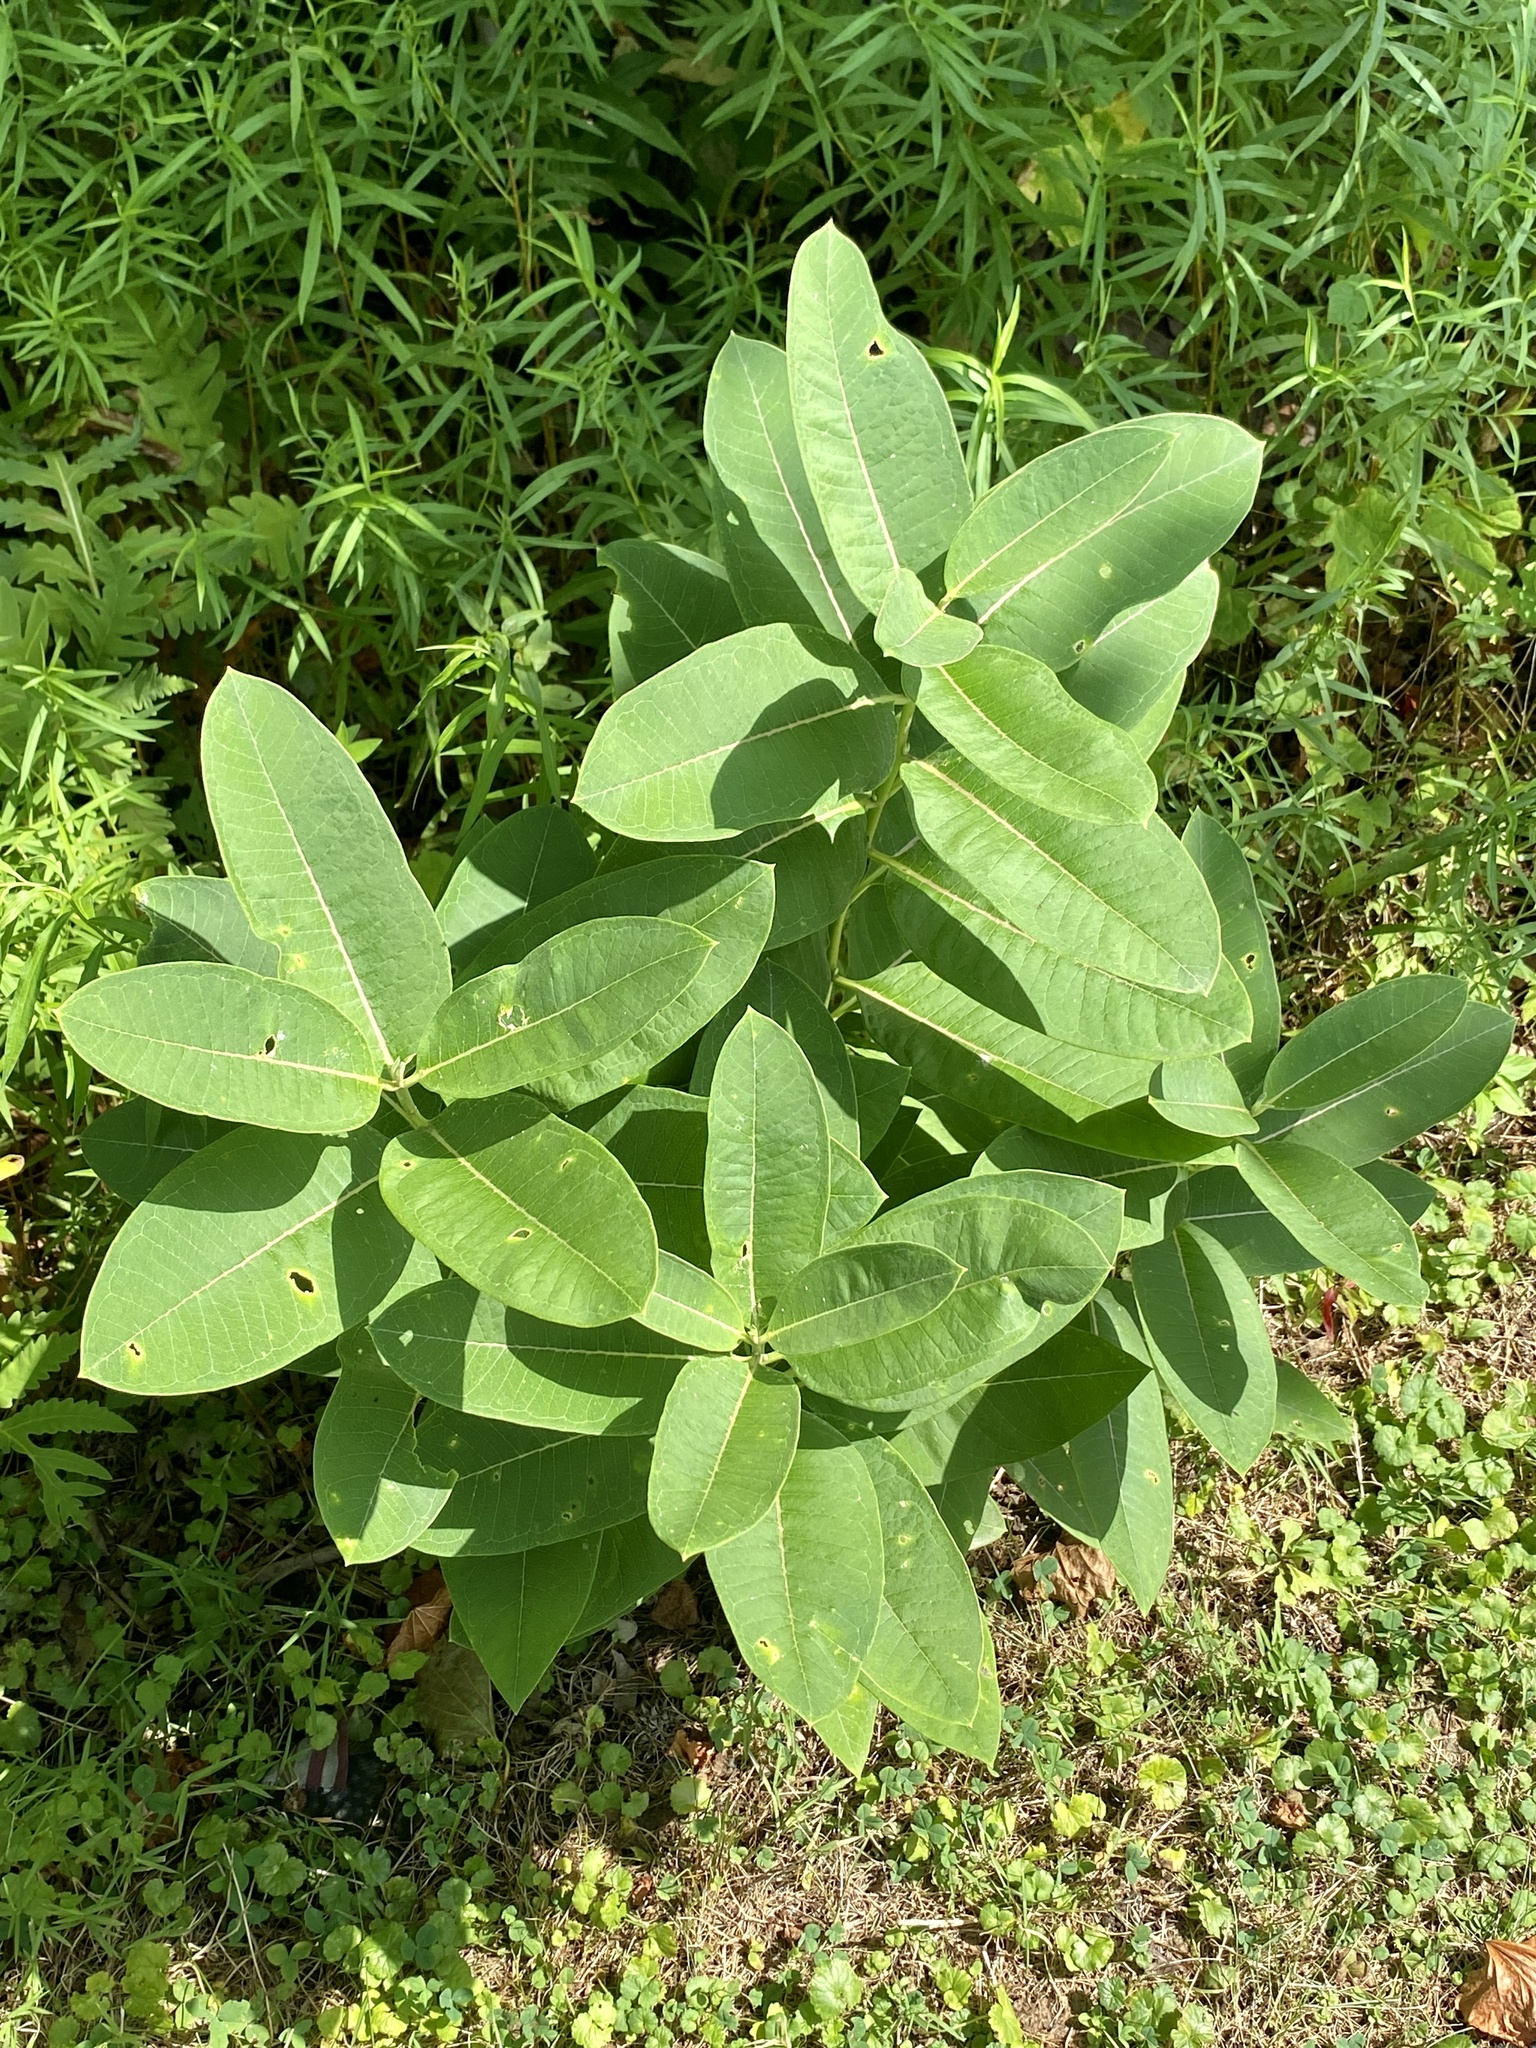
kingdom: Plantae
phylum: Tracheophyta
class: Magnoliopsida
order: Gentianales
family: Apocynaceae
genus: Asclepias
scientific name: Asclepias syriaca
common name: Common milkweed
